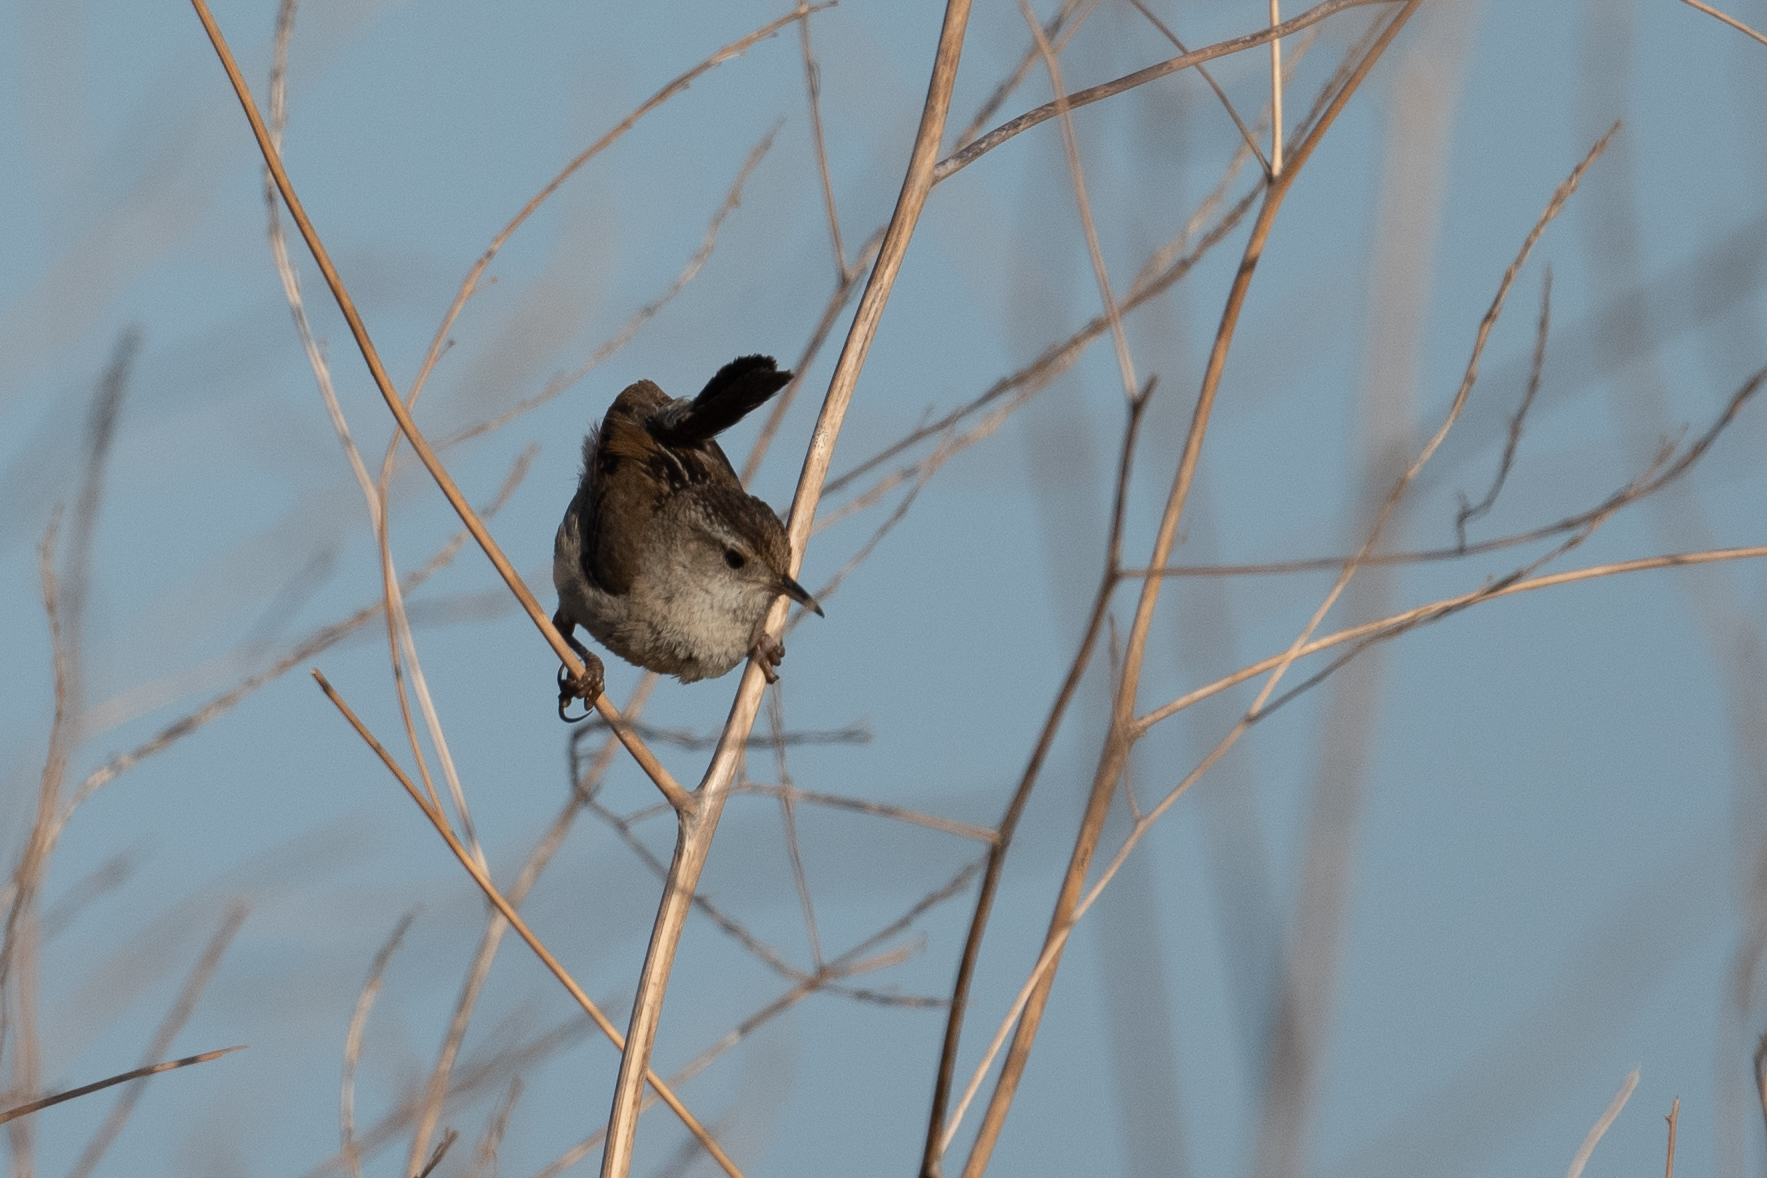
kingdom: Animalia
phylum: Chordata
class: Aves
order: Passeriformes
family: Troglodytidae
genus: Cistothorus
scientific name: Cistothorus palustris
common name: Marsh wren
